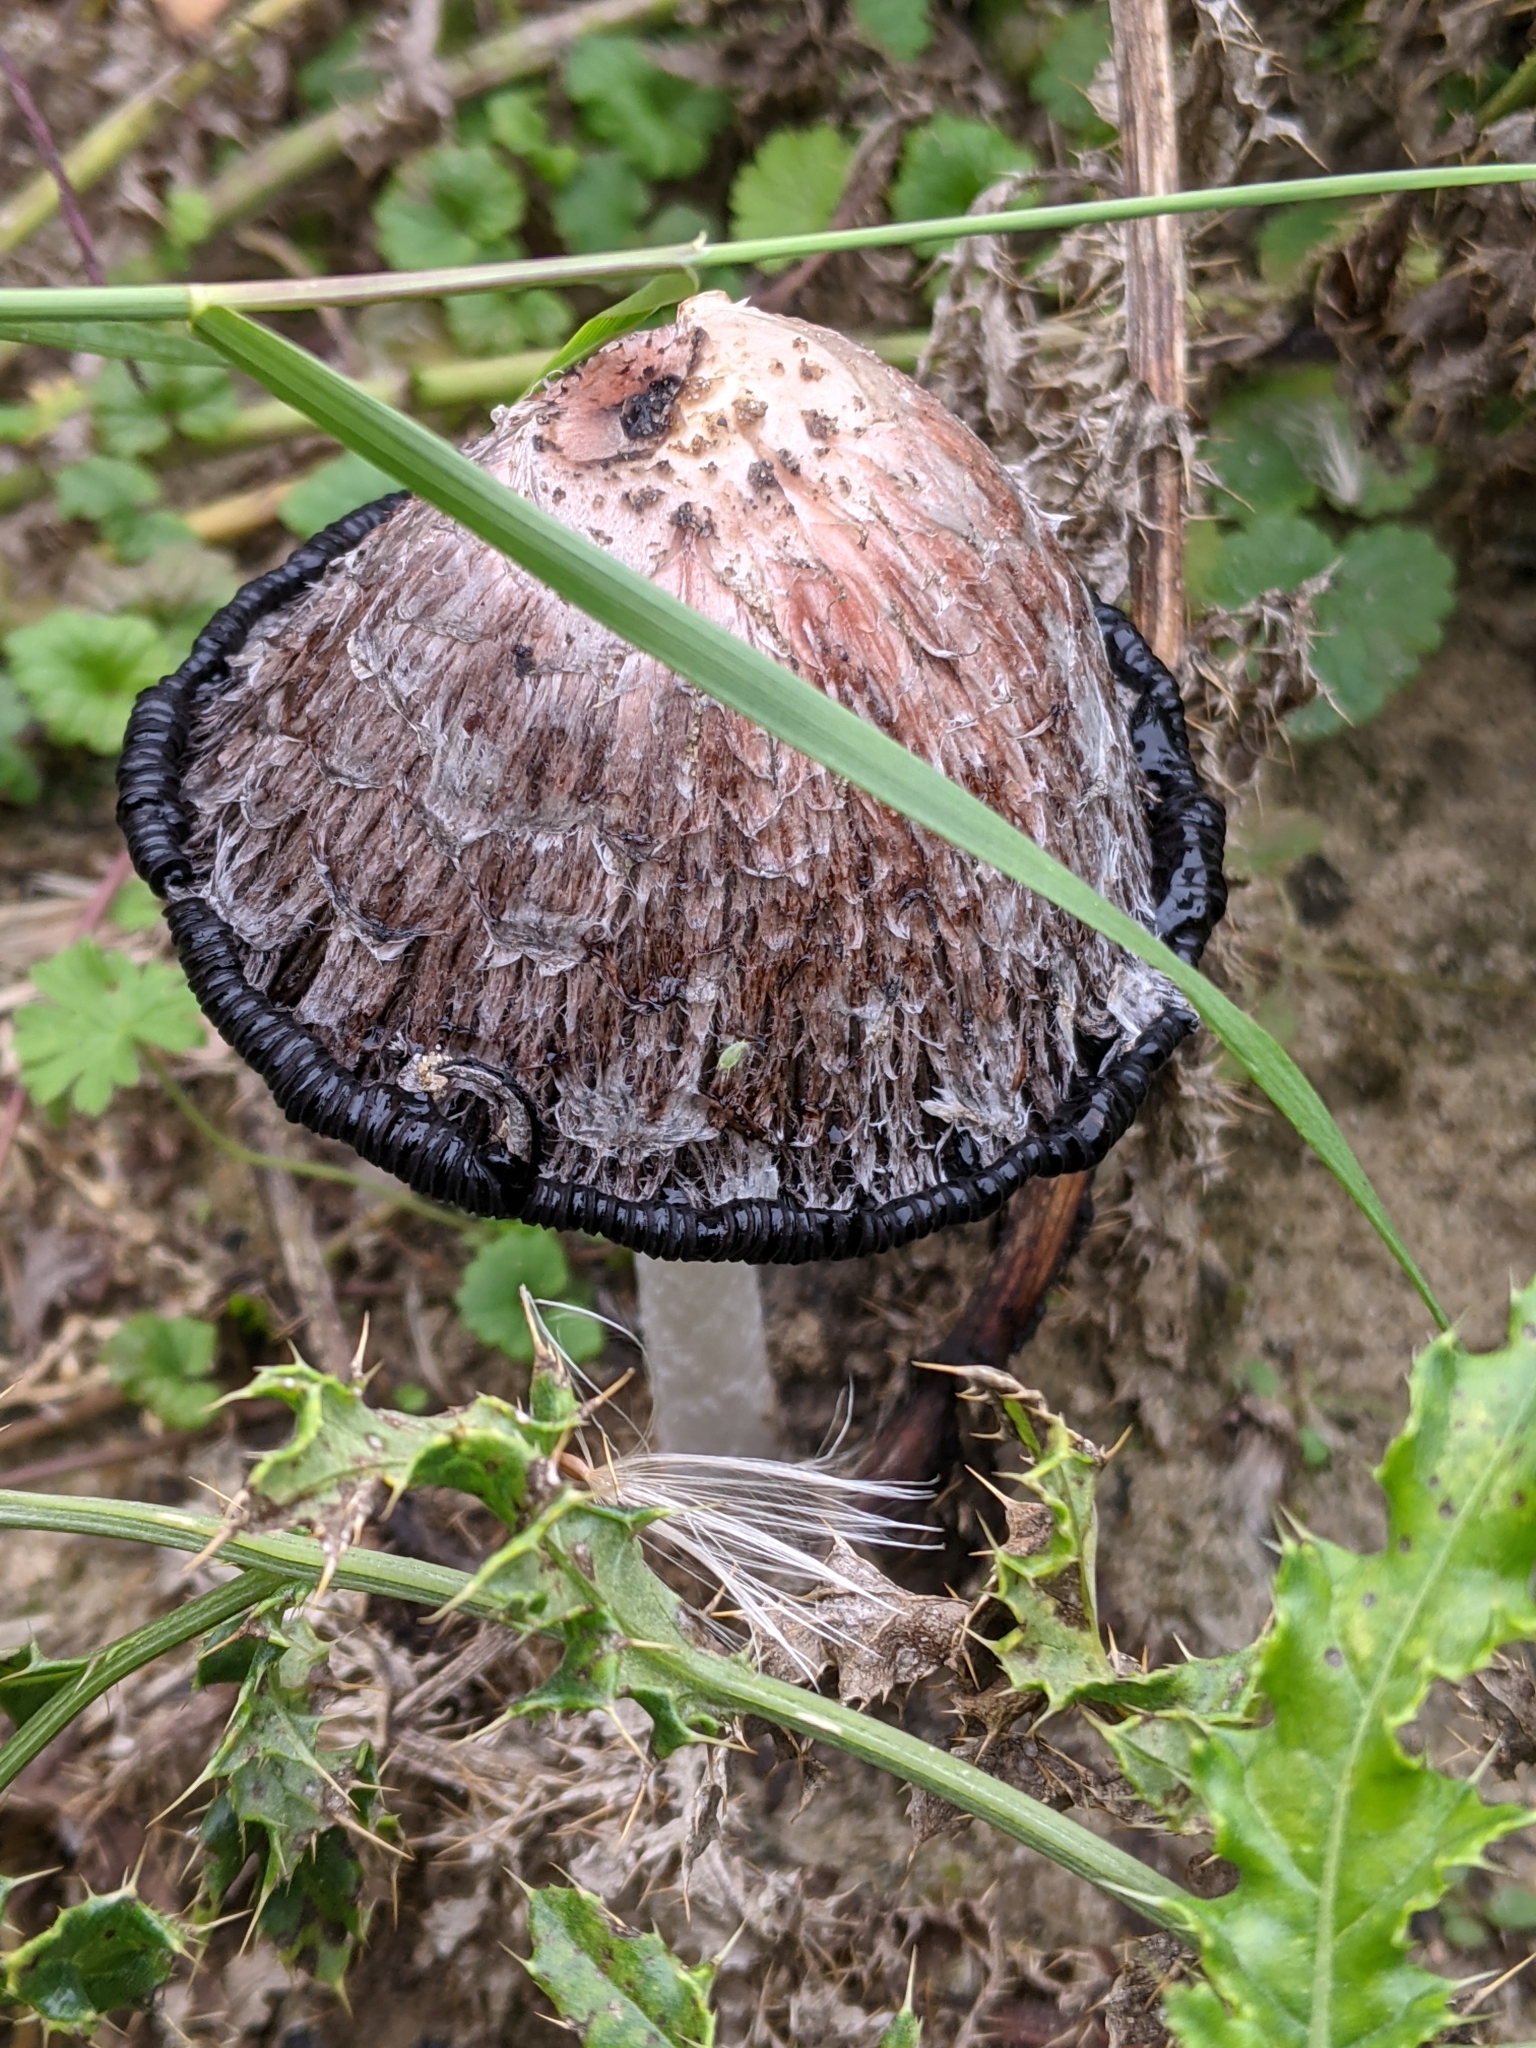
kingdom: Fungi
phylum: Basidiomycota
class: Agaricomycetes
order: Agaricales
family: Agaricaceae
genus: Coprinus
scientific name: Coprinus comatus
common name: Lawyer's wig
